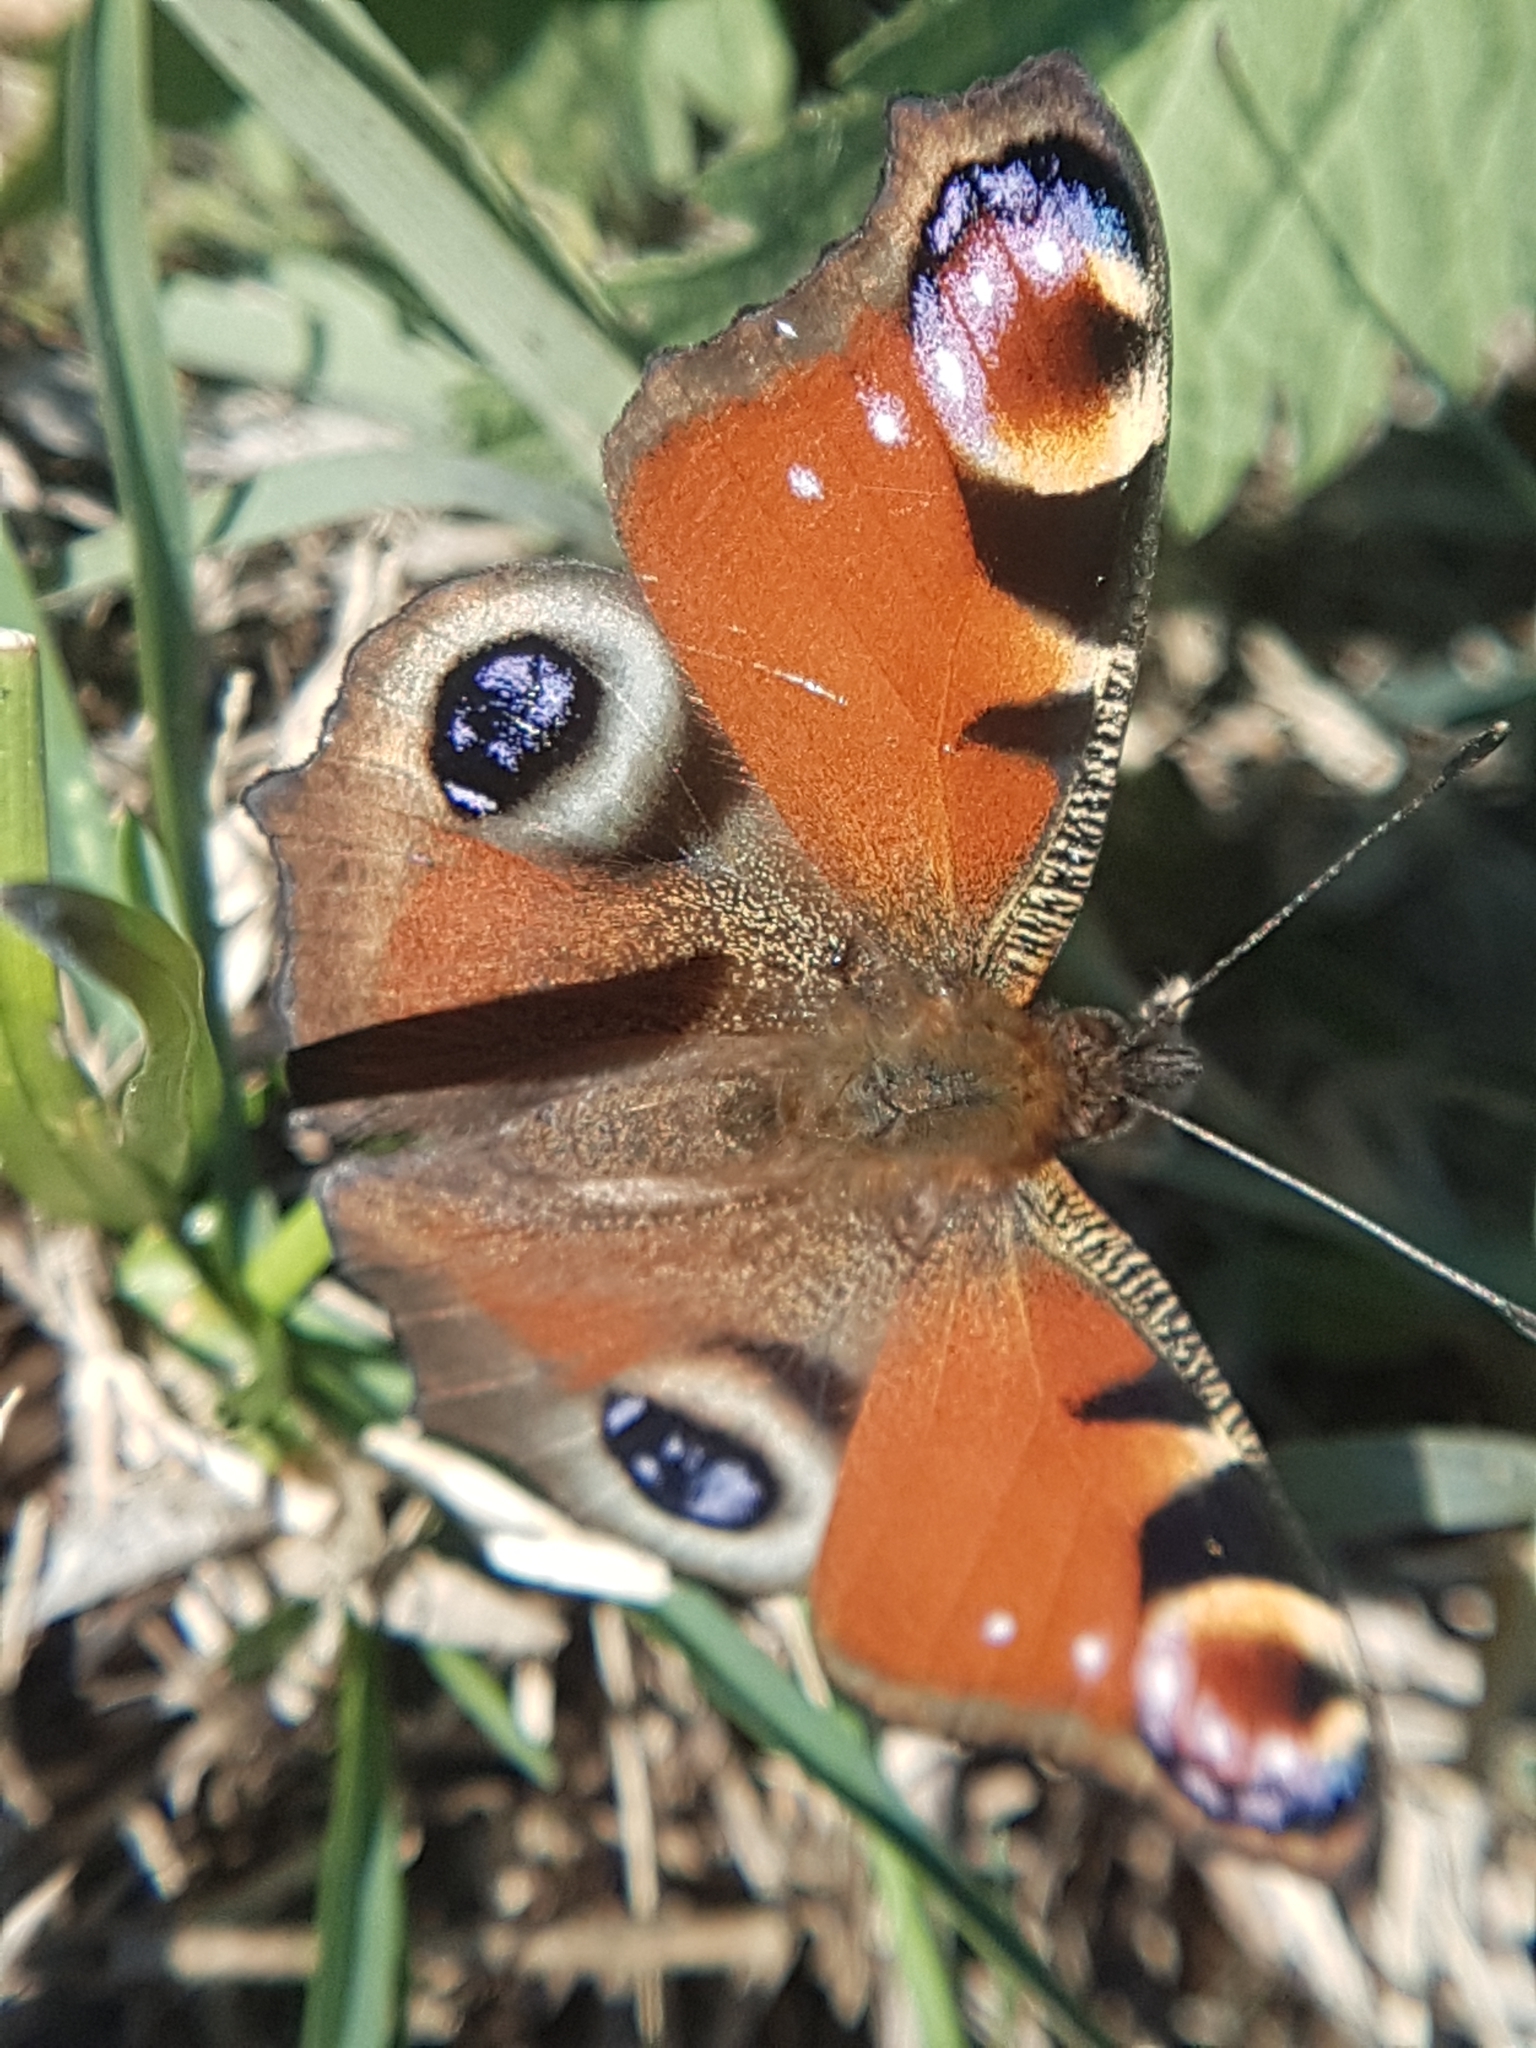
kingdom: Animalia
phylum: Arthropoda
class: Insecta
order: Lepidoptera
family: Nymphalidae
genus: Aglais
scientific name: Aglais io
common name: Peacock
